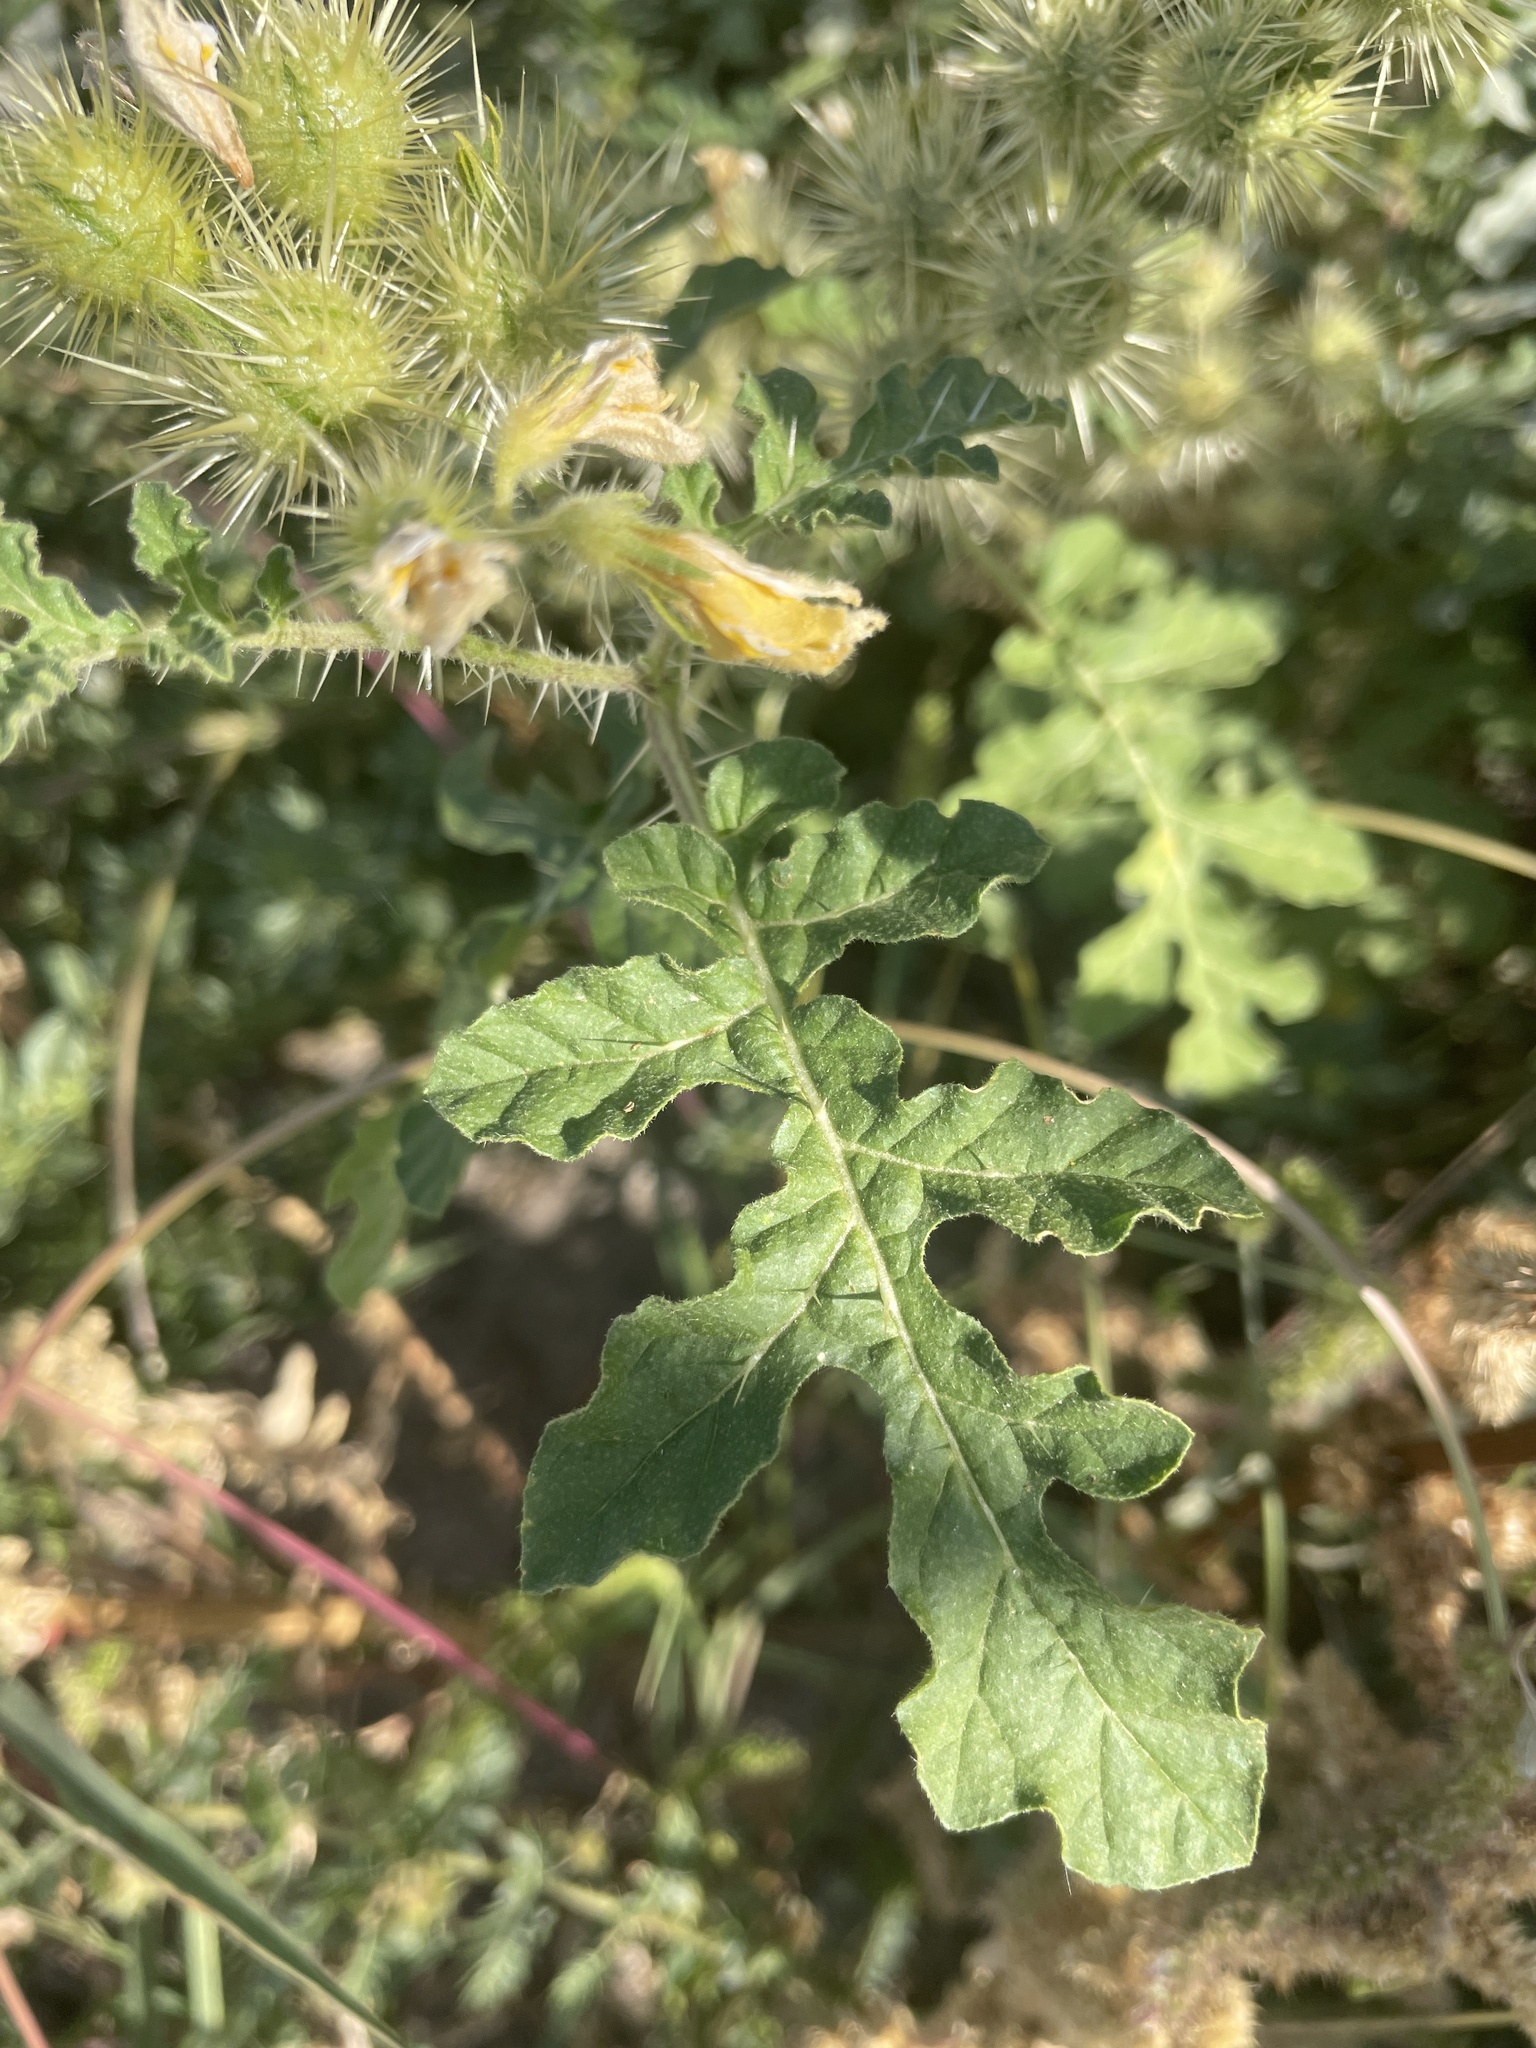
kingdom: Plantae
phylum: Tracheophyta
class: Magnoliopsida
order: Solanales
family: Solanaceae
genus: Solanum
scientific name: Solanum angustifolium
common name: Buffalobur nightshade
